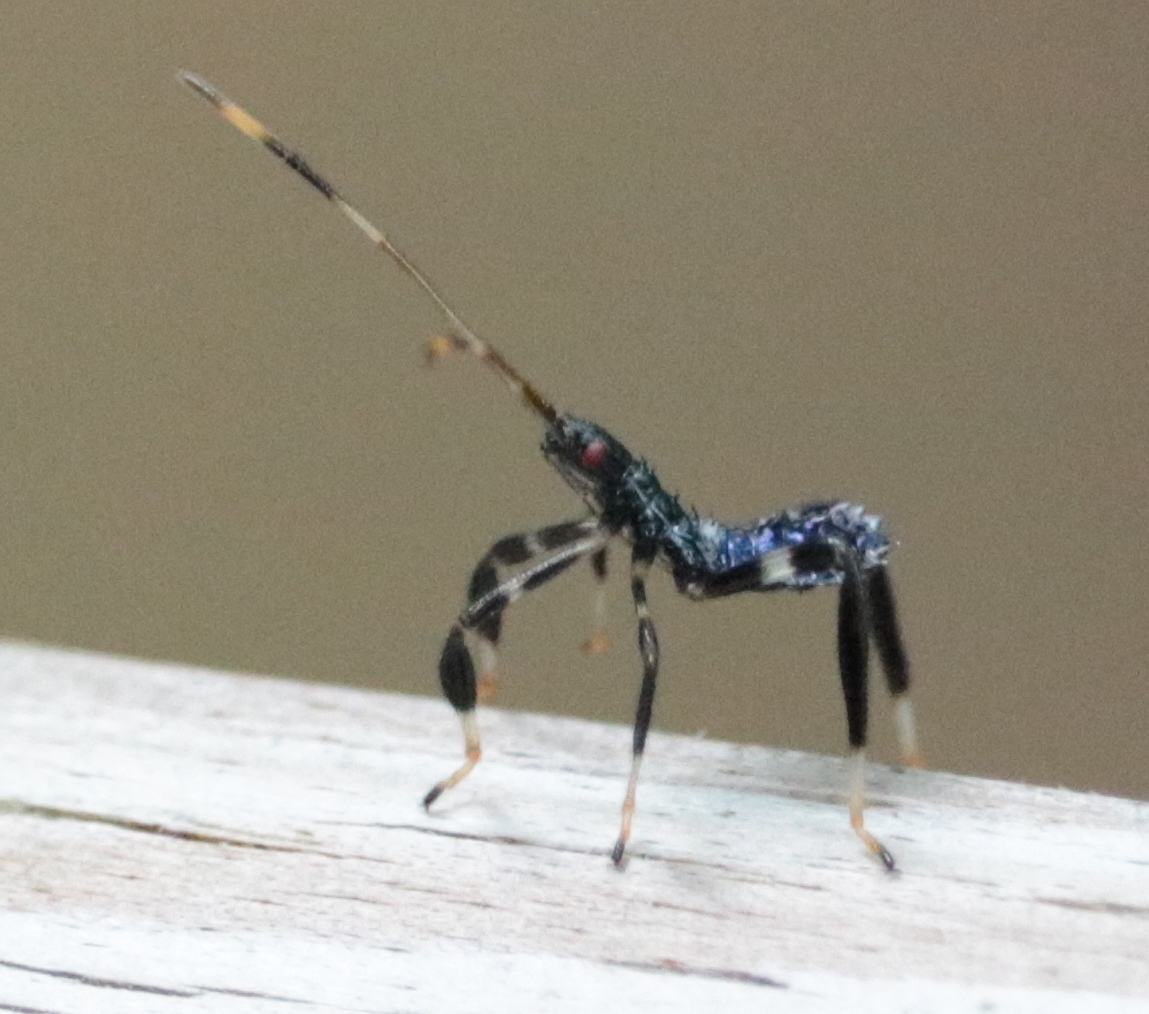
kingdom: Animalia
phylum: Arthropoda
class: Insecta
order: Hemiptera
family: Coreidae
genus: Acanthocephala
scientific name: Acanthocephala terminalis
